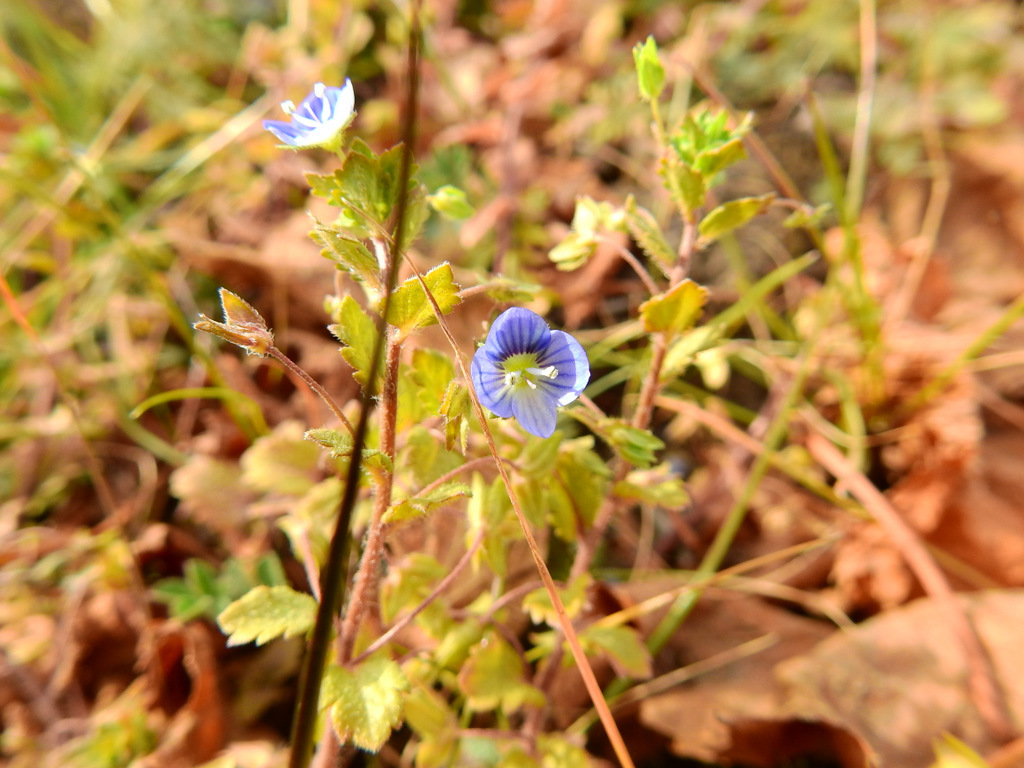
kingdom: Plantae
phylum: Tracheophyta
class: Magnoliopsida
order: Lamiales
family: Plantaginaceae
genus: Veronica
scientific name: Veronica persica
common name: Common field-speedwell
